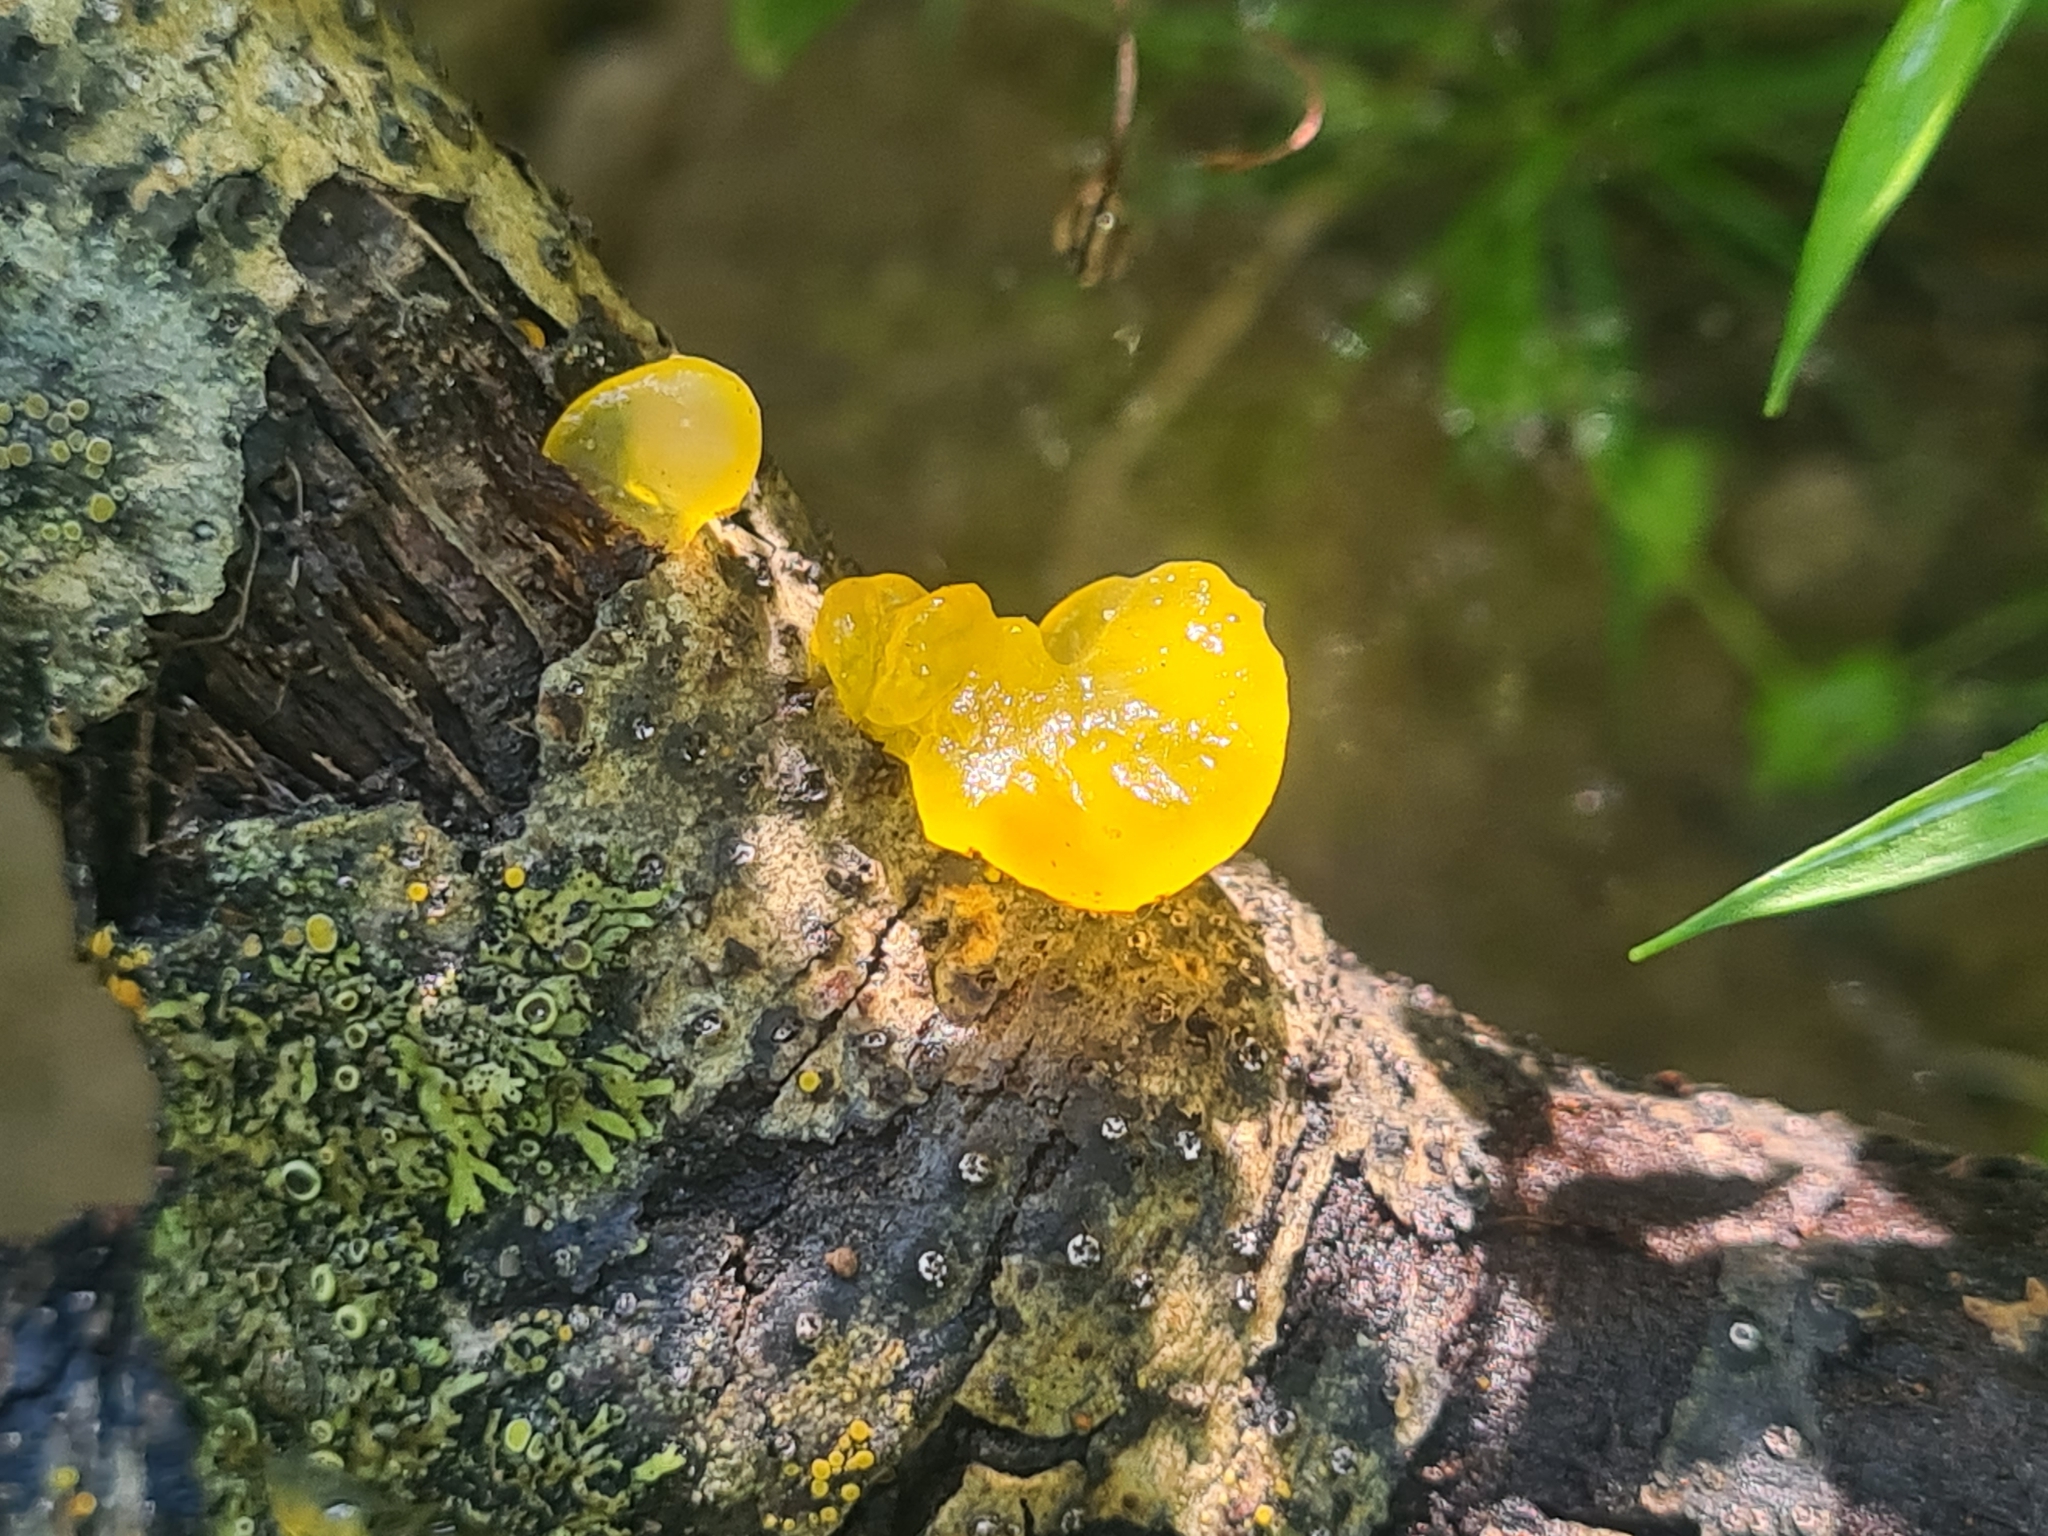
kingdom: Fungi
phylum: Basidiomycota
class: Tremellomycetes
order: Tremellales
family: Tremellaceae
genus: Tremella
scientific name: Tremella mesenterica
